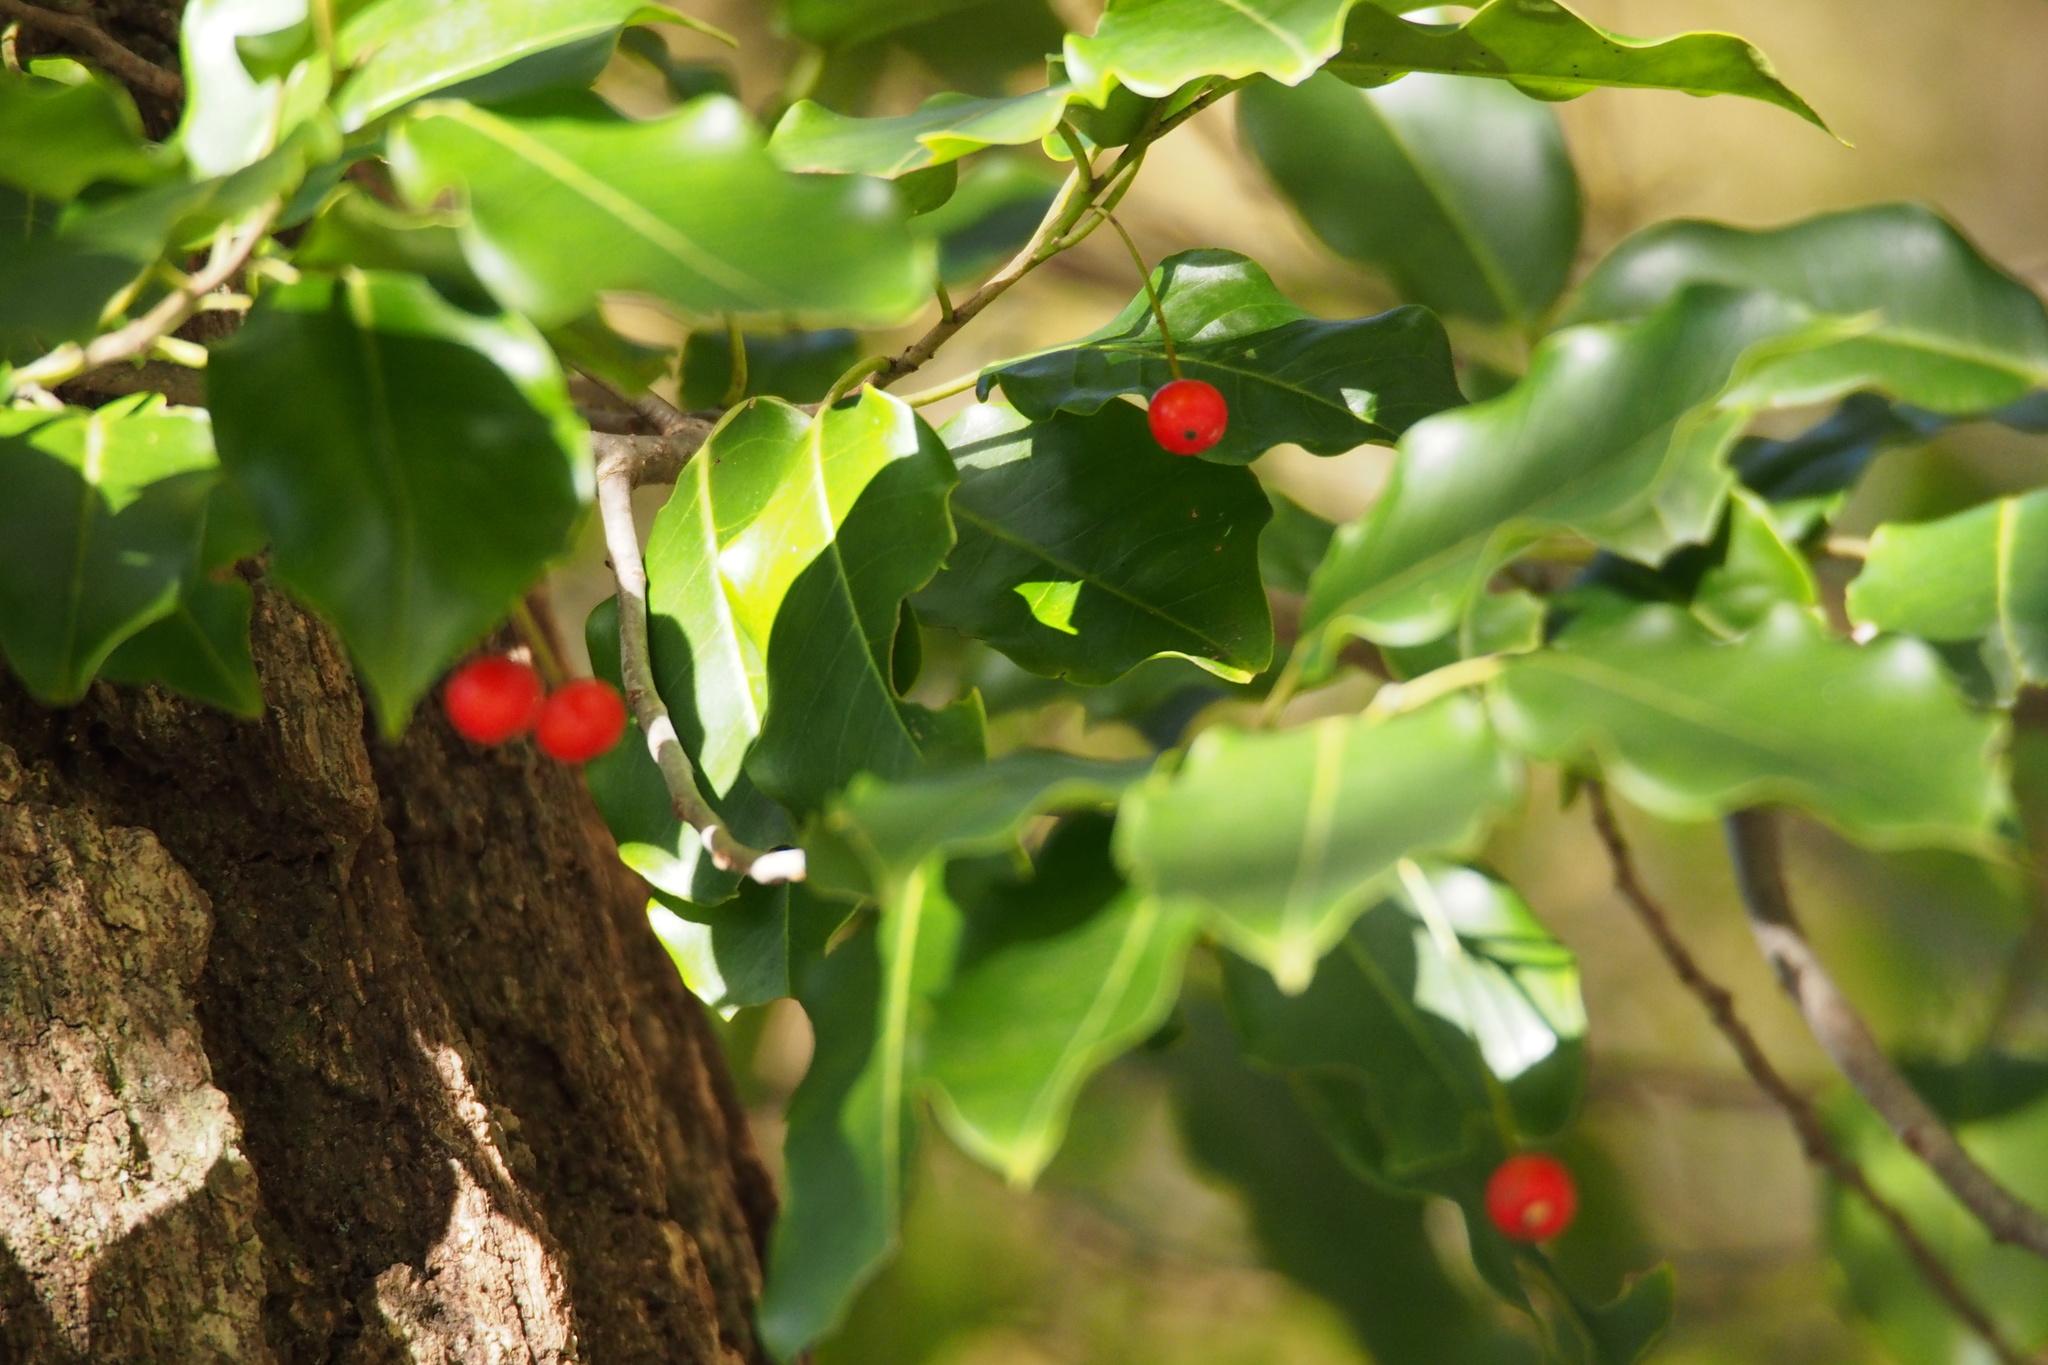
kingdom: Plantae
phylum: Tracheophyta
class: Magnoliopsida
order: Aquifoliales
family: Aquifoliaceae
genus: Ilex
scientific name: Ilex pedunculosa
